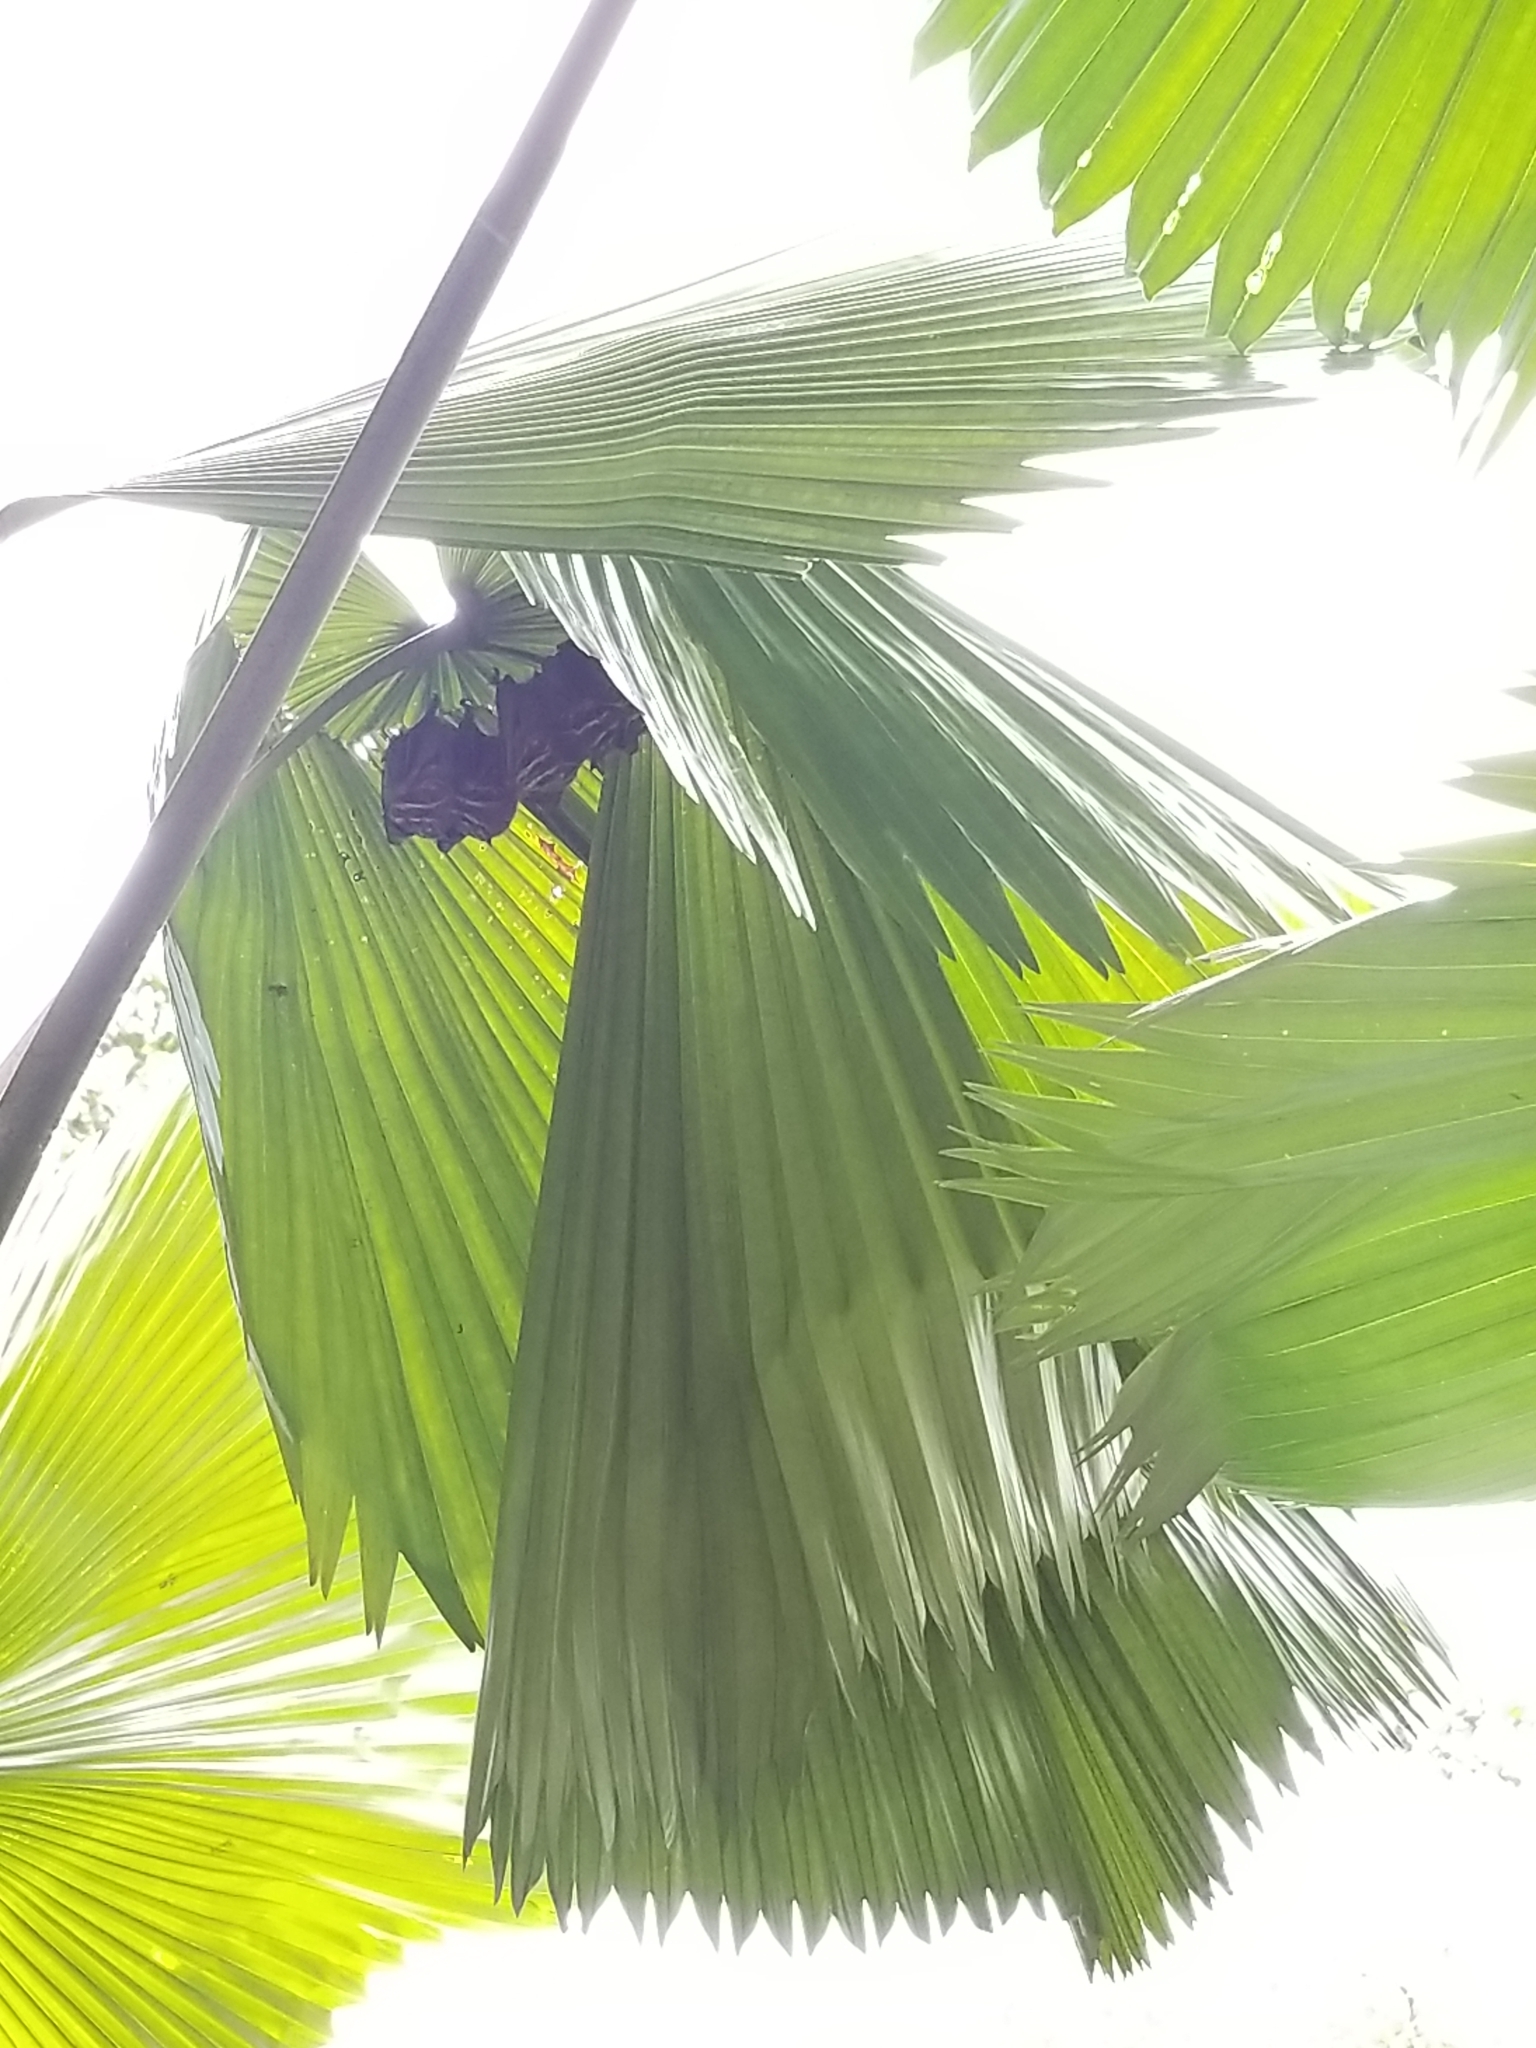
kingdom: Animalia
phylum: Chordata
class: Mammalia
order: Chiroptera
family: Phyllostomidae
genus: Uroderma
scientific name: Uroderma bilobatum
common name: Common tent-making bat
